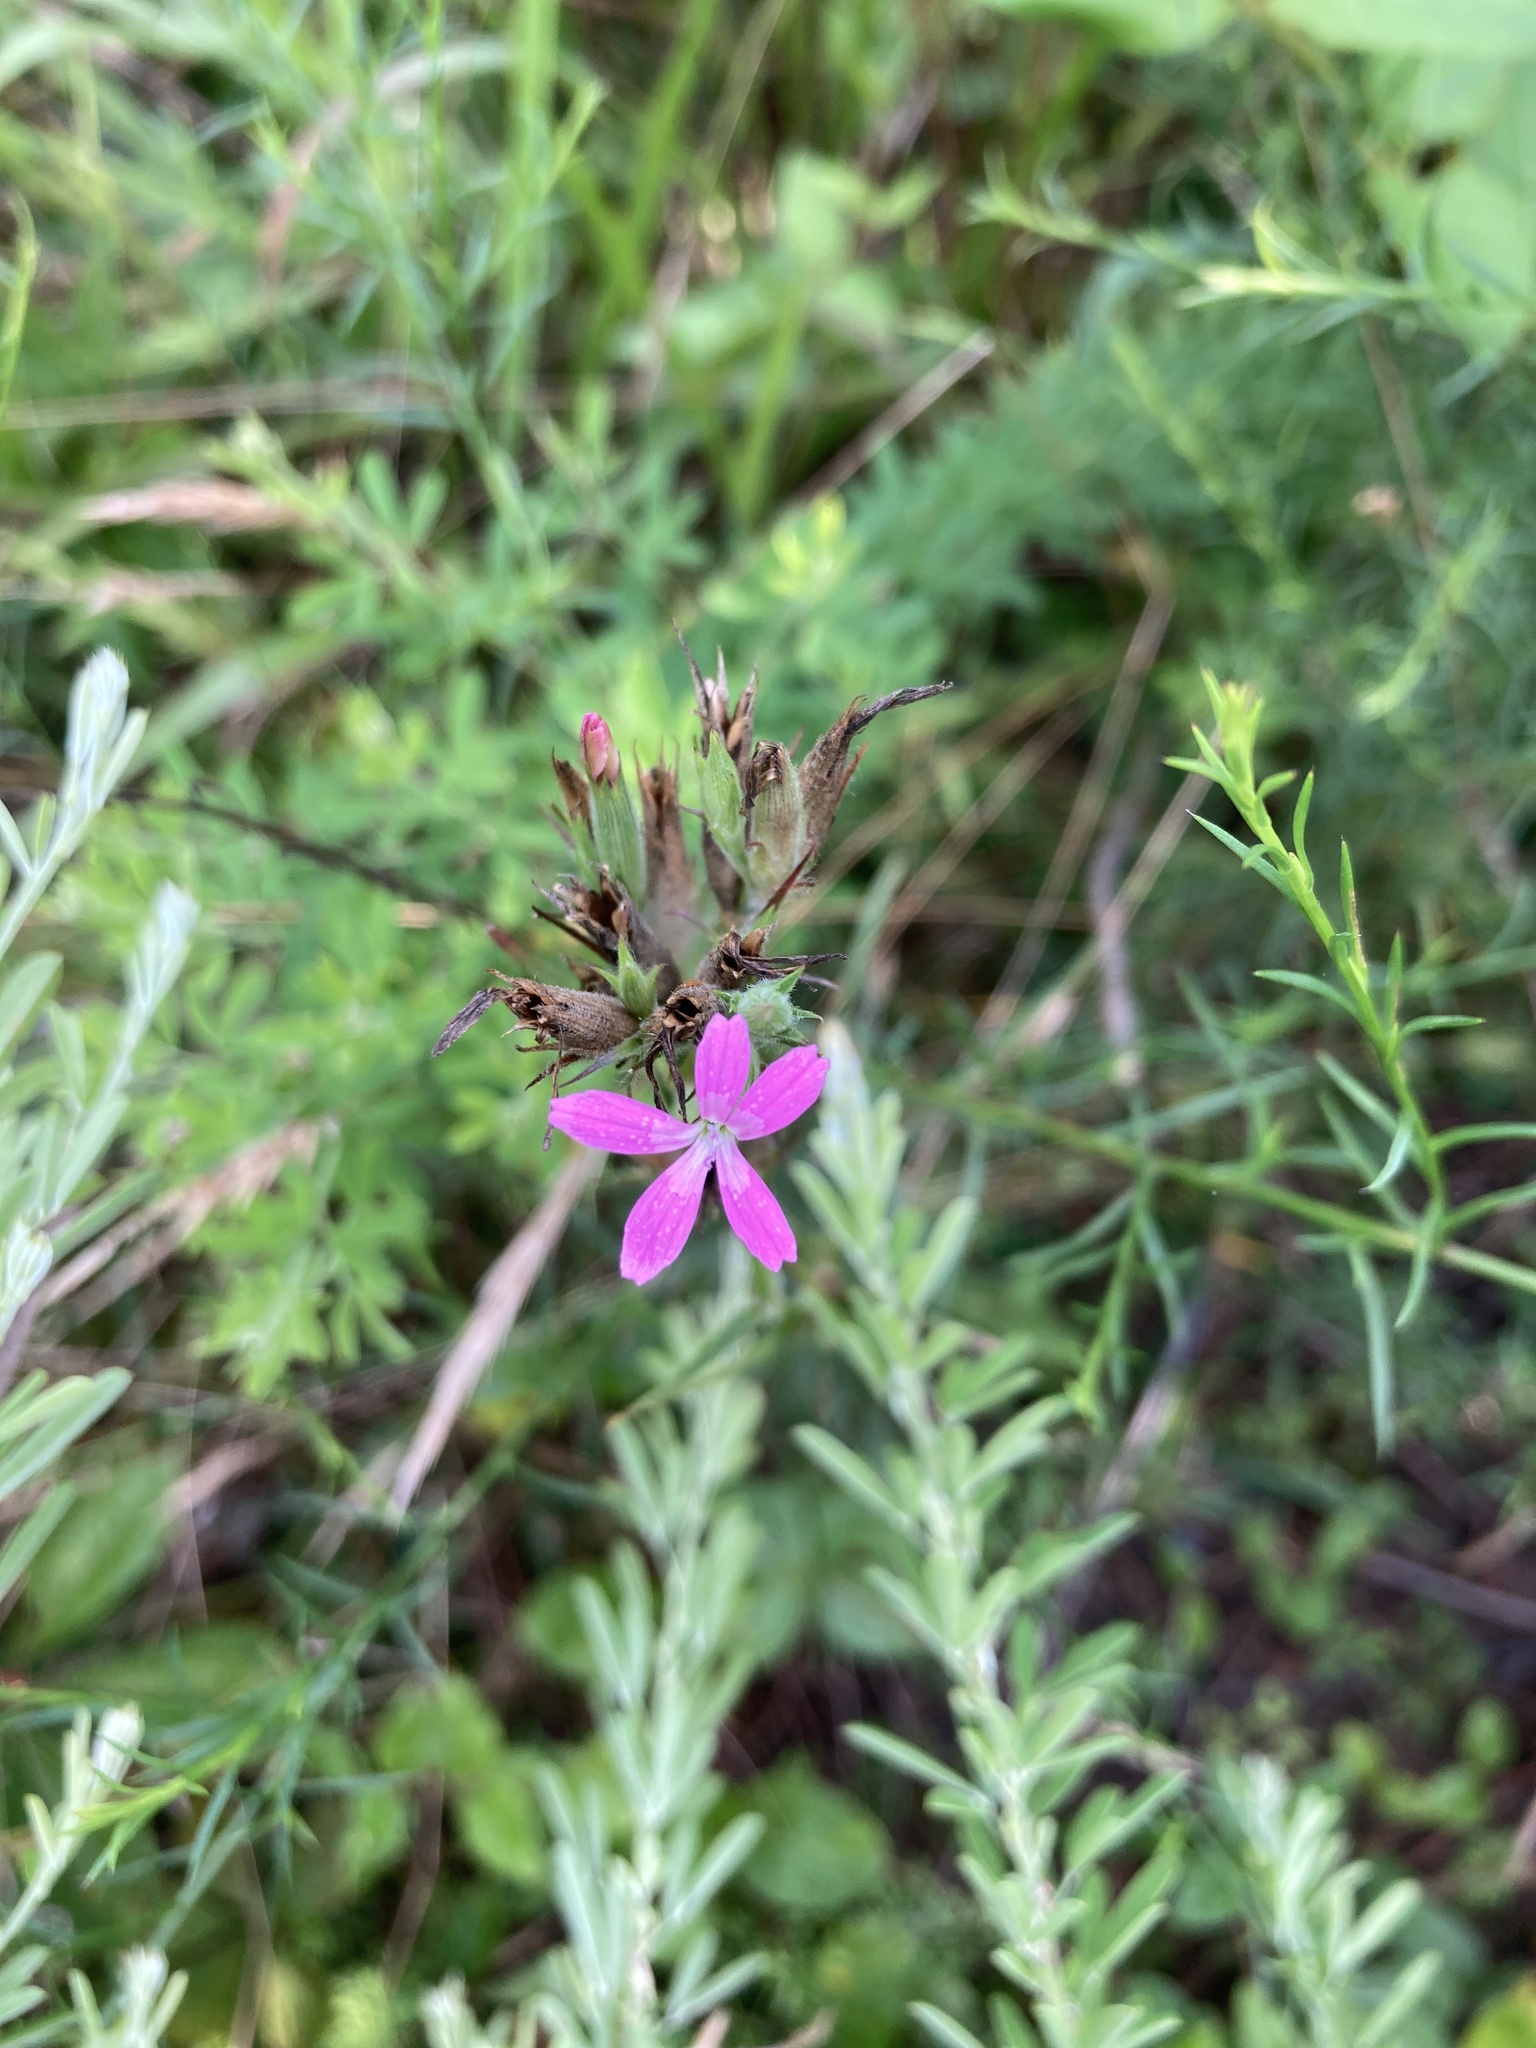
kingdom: Plantae
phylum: Tracheophyta
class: Magnoliopsida
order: Caryophyllales
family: Caryophyllaceae
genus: Dianthus
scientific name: Dianthus armeria
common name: Deptford pink
